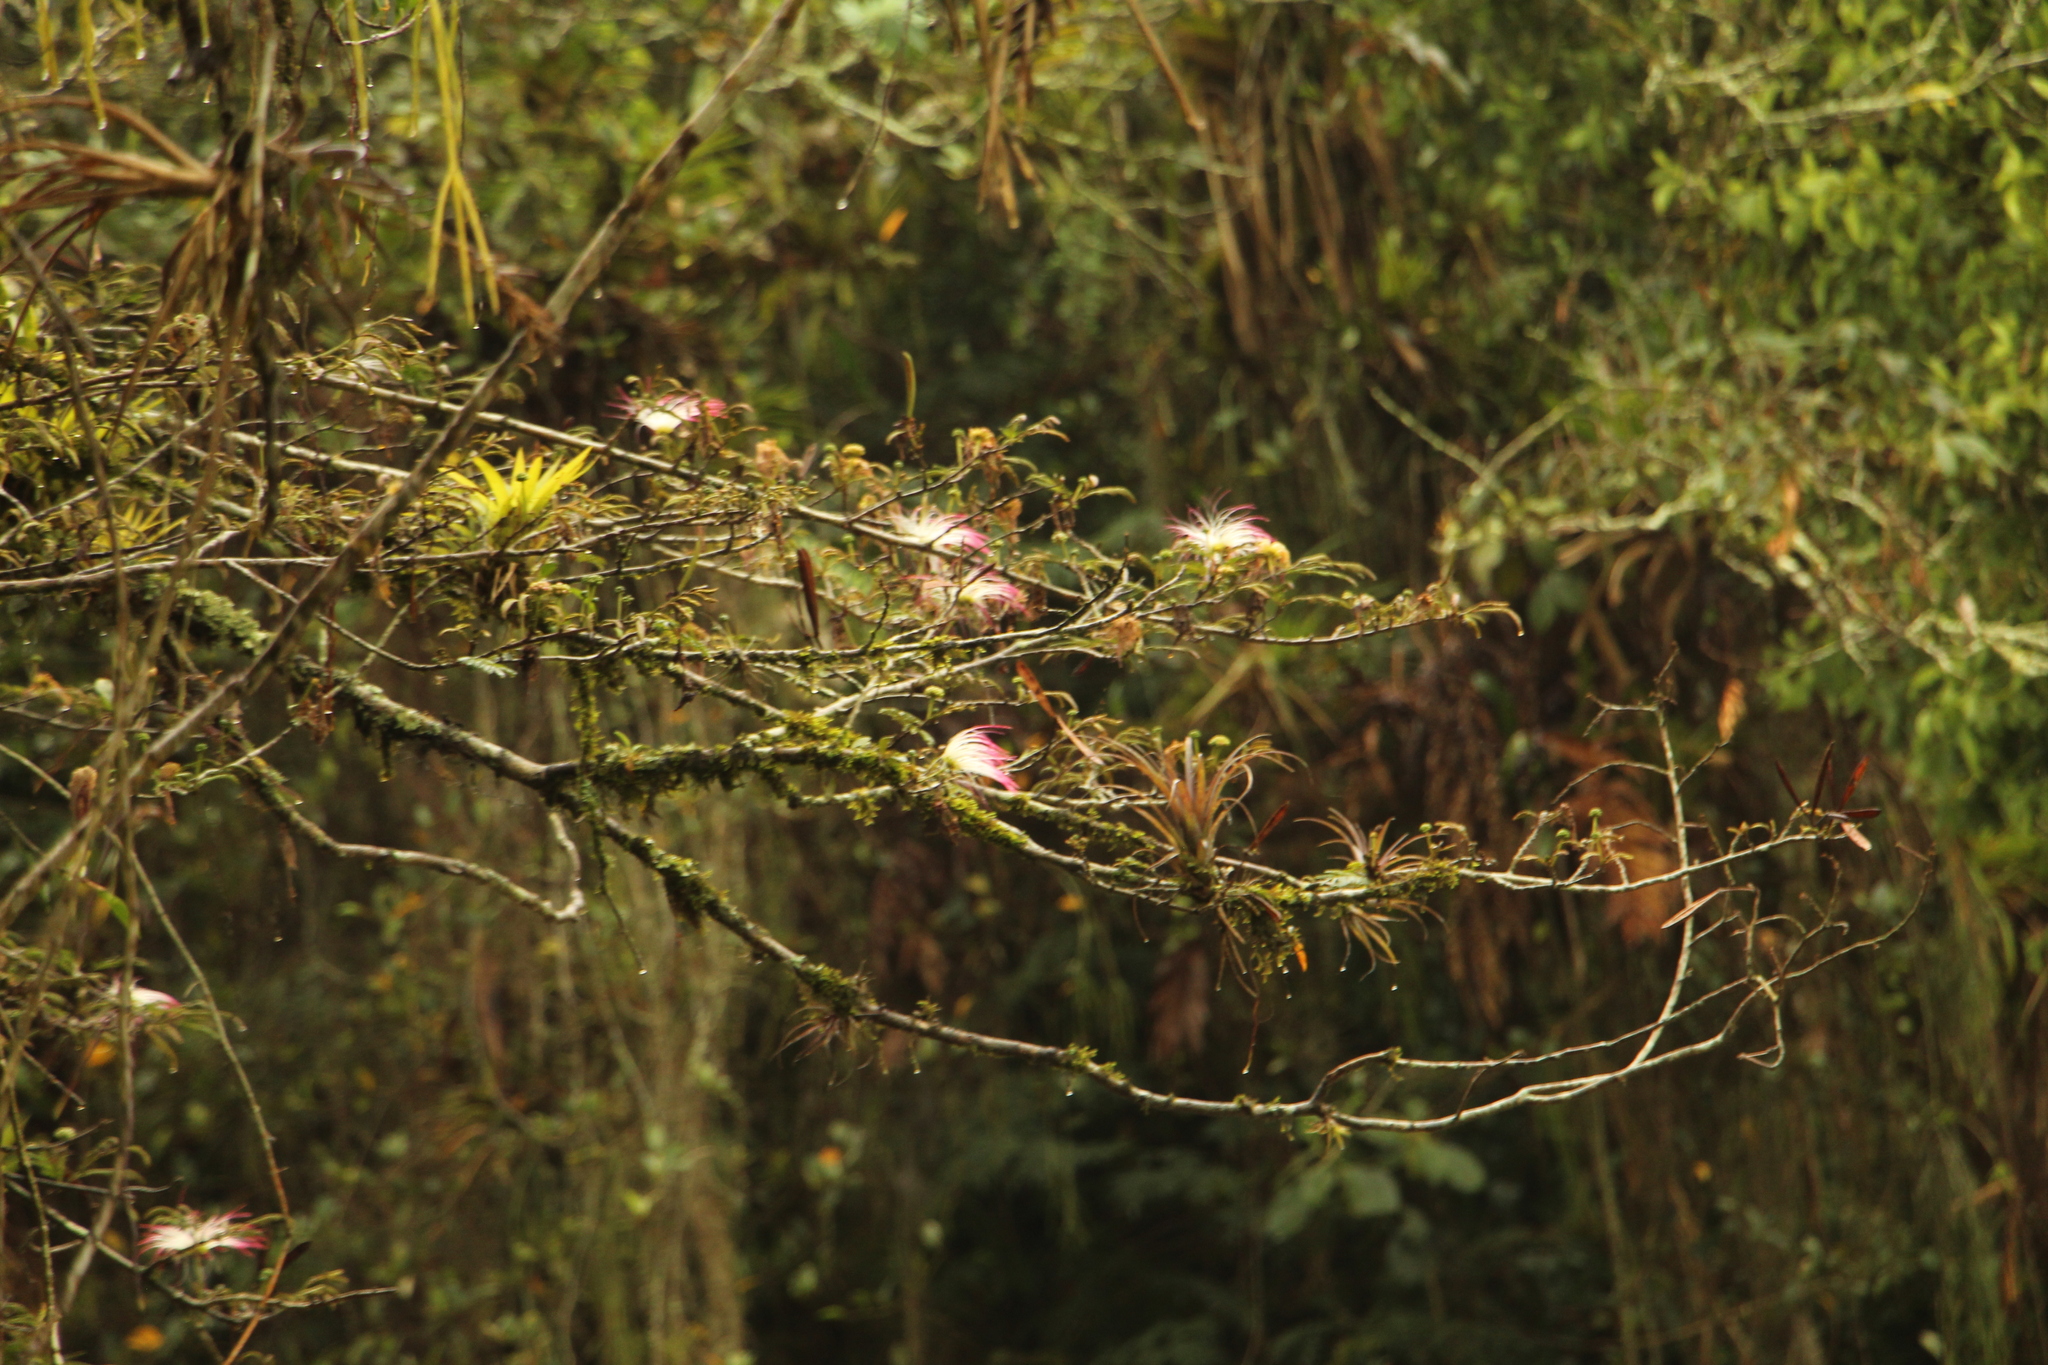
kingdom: Plantae
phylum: Tracheophyta
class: Magnoliopsida
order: Fabales
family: Fabaceae
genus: Calliandra
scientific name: Calliandra pittieri
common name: Carbonero de avenidas
